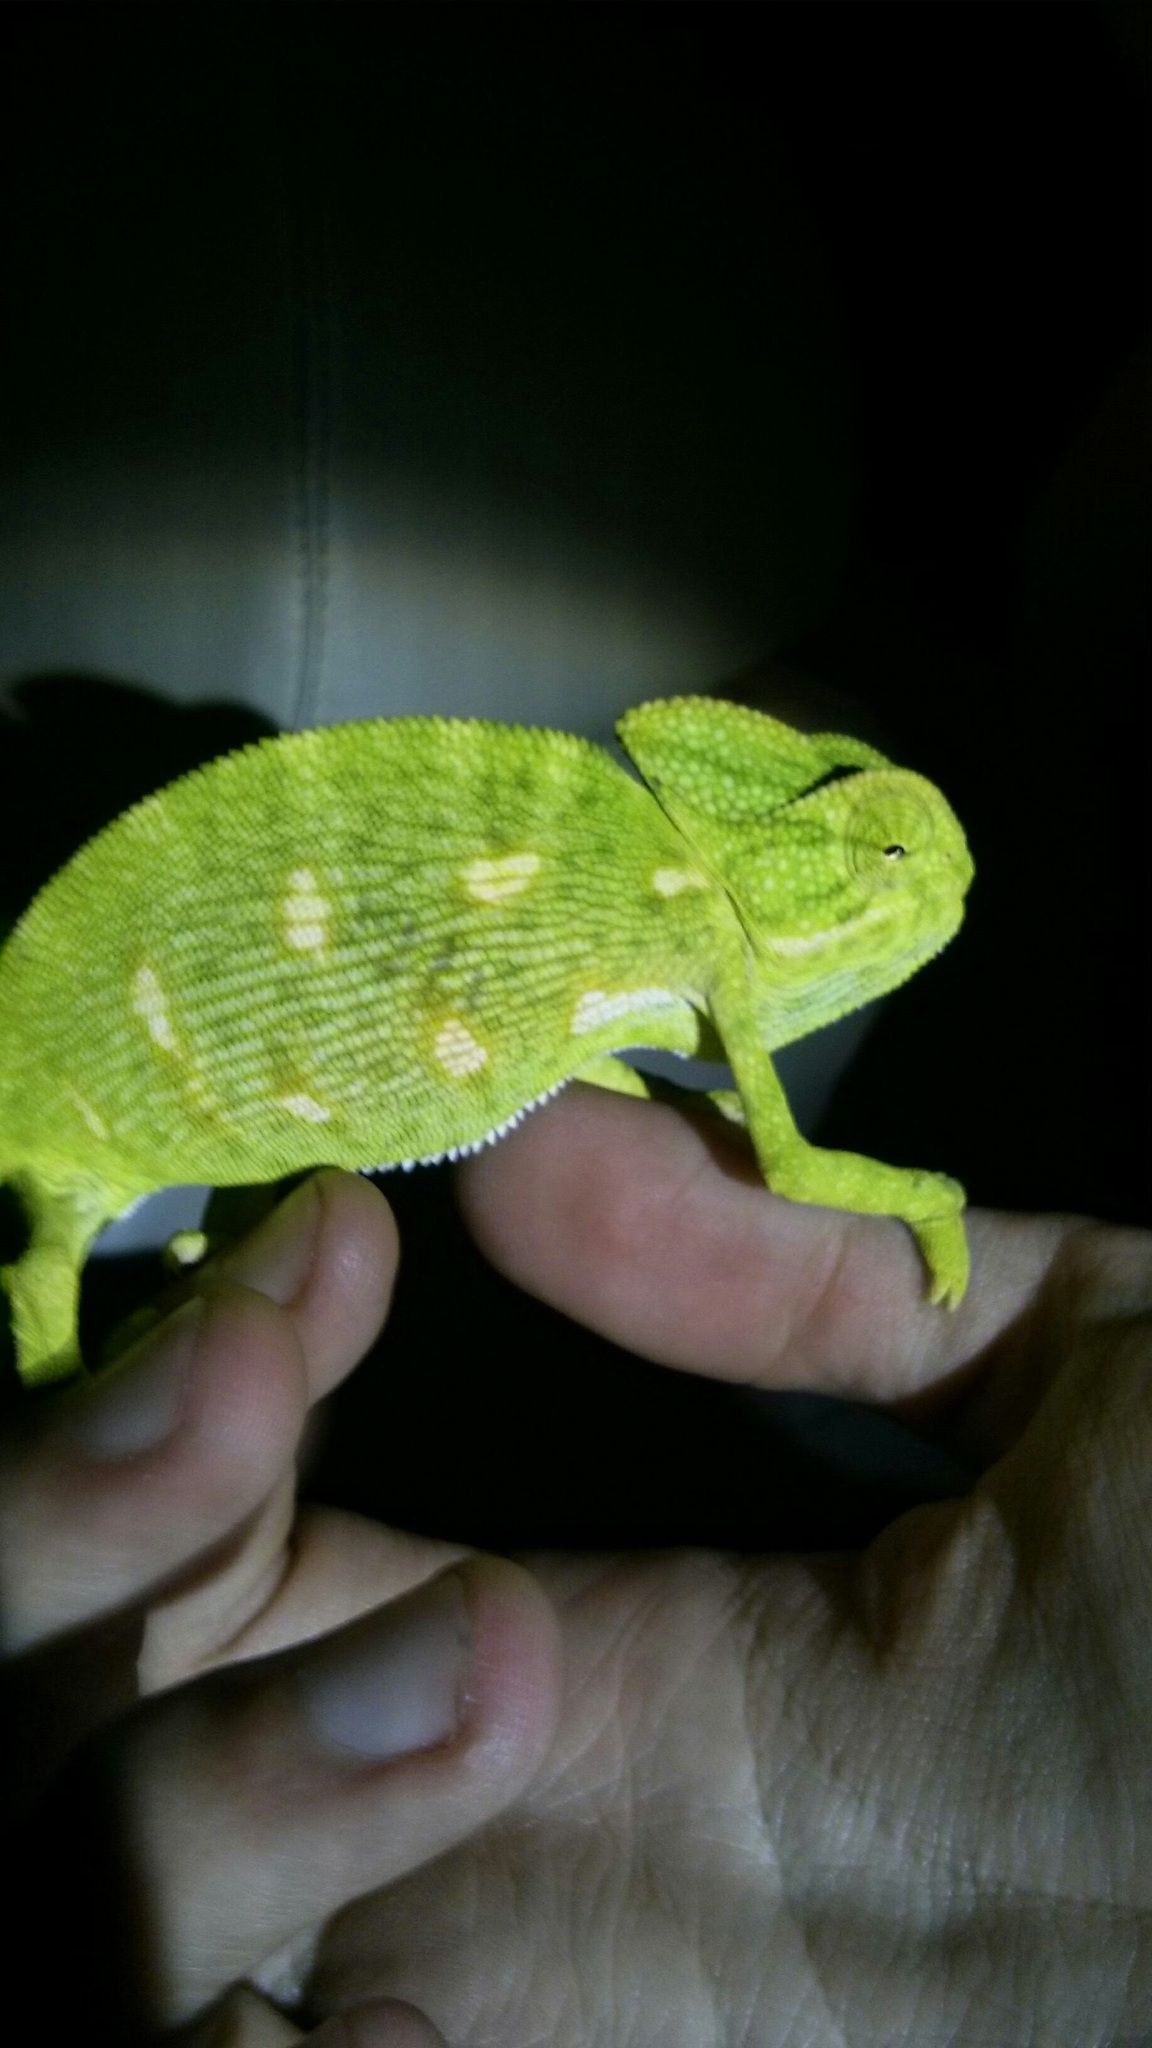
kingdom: Animalia
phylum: Chordata
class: Squamata
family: Chamaeleonidae
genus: Chamaeleo
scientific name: Chamaeleo zeylanicus
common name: Indian chameleon
